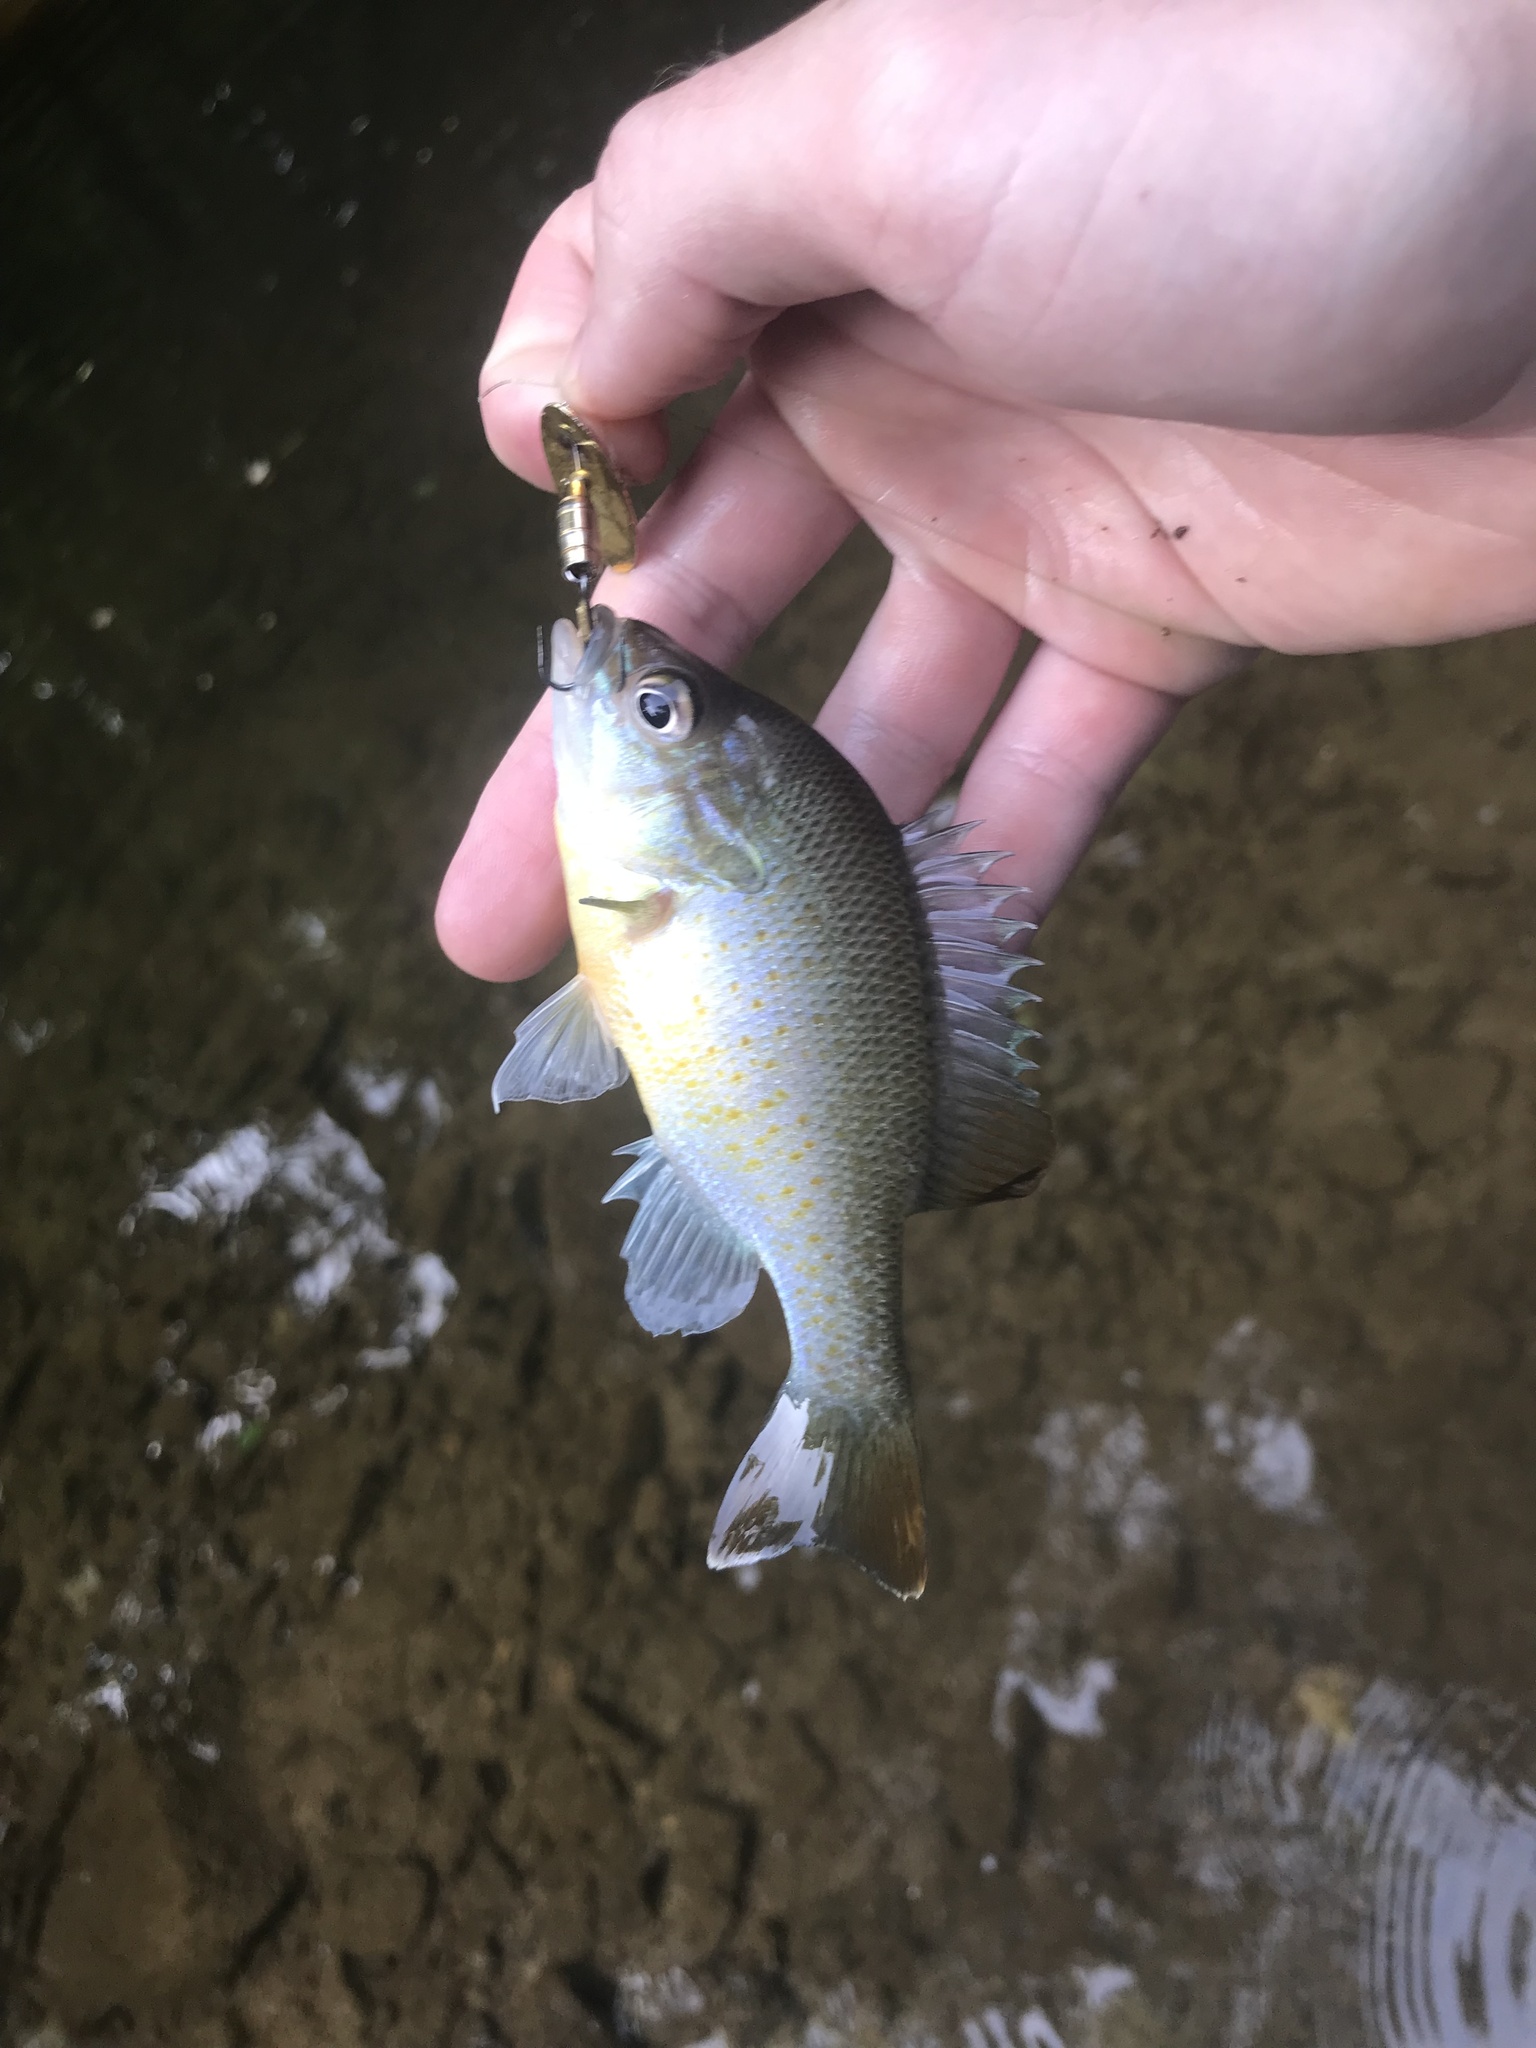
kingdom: Animalia
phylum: Chordata
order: Perciformes
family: Centrarchidae
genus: Lepomis
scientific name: Lepomis auritus
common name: Redbreast sunfish
